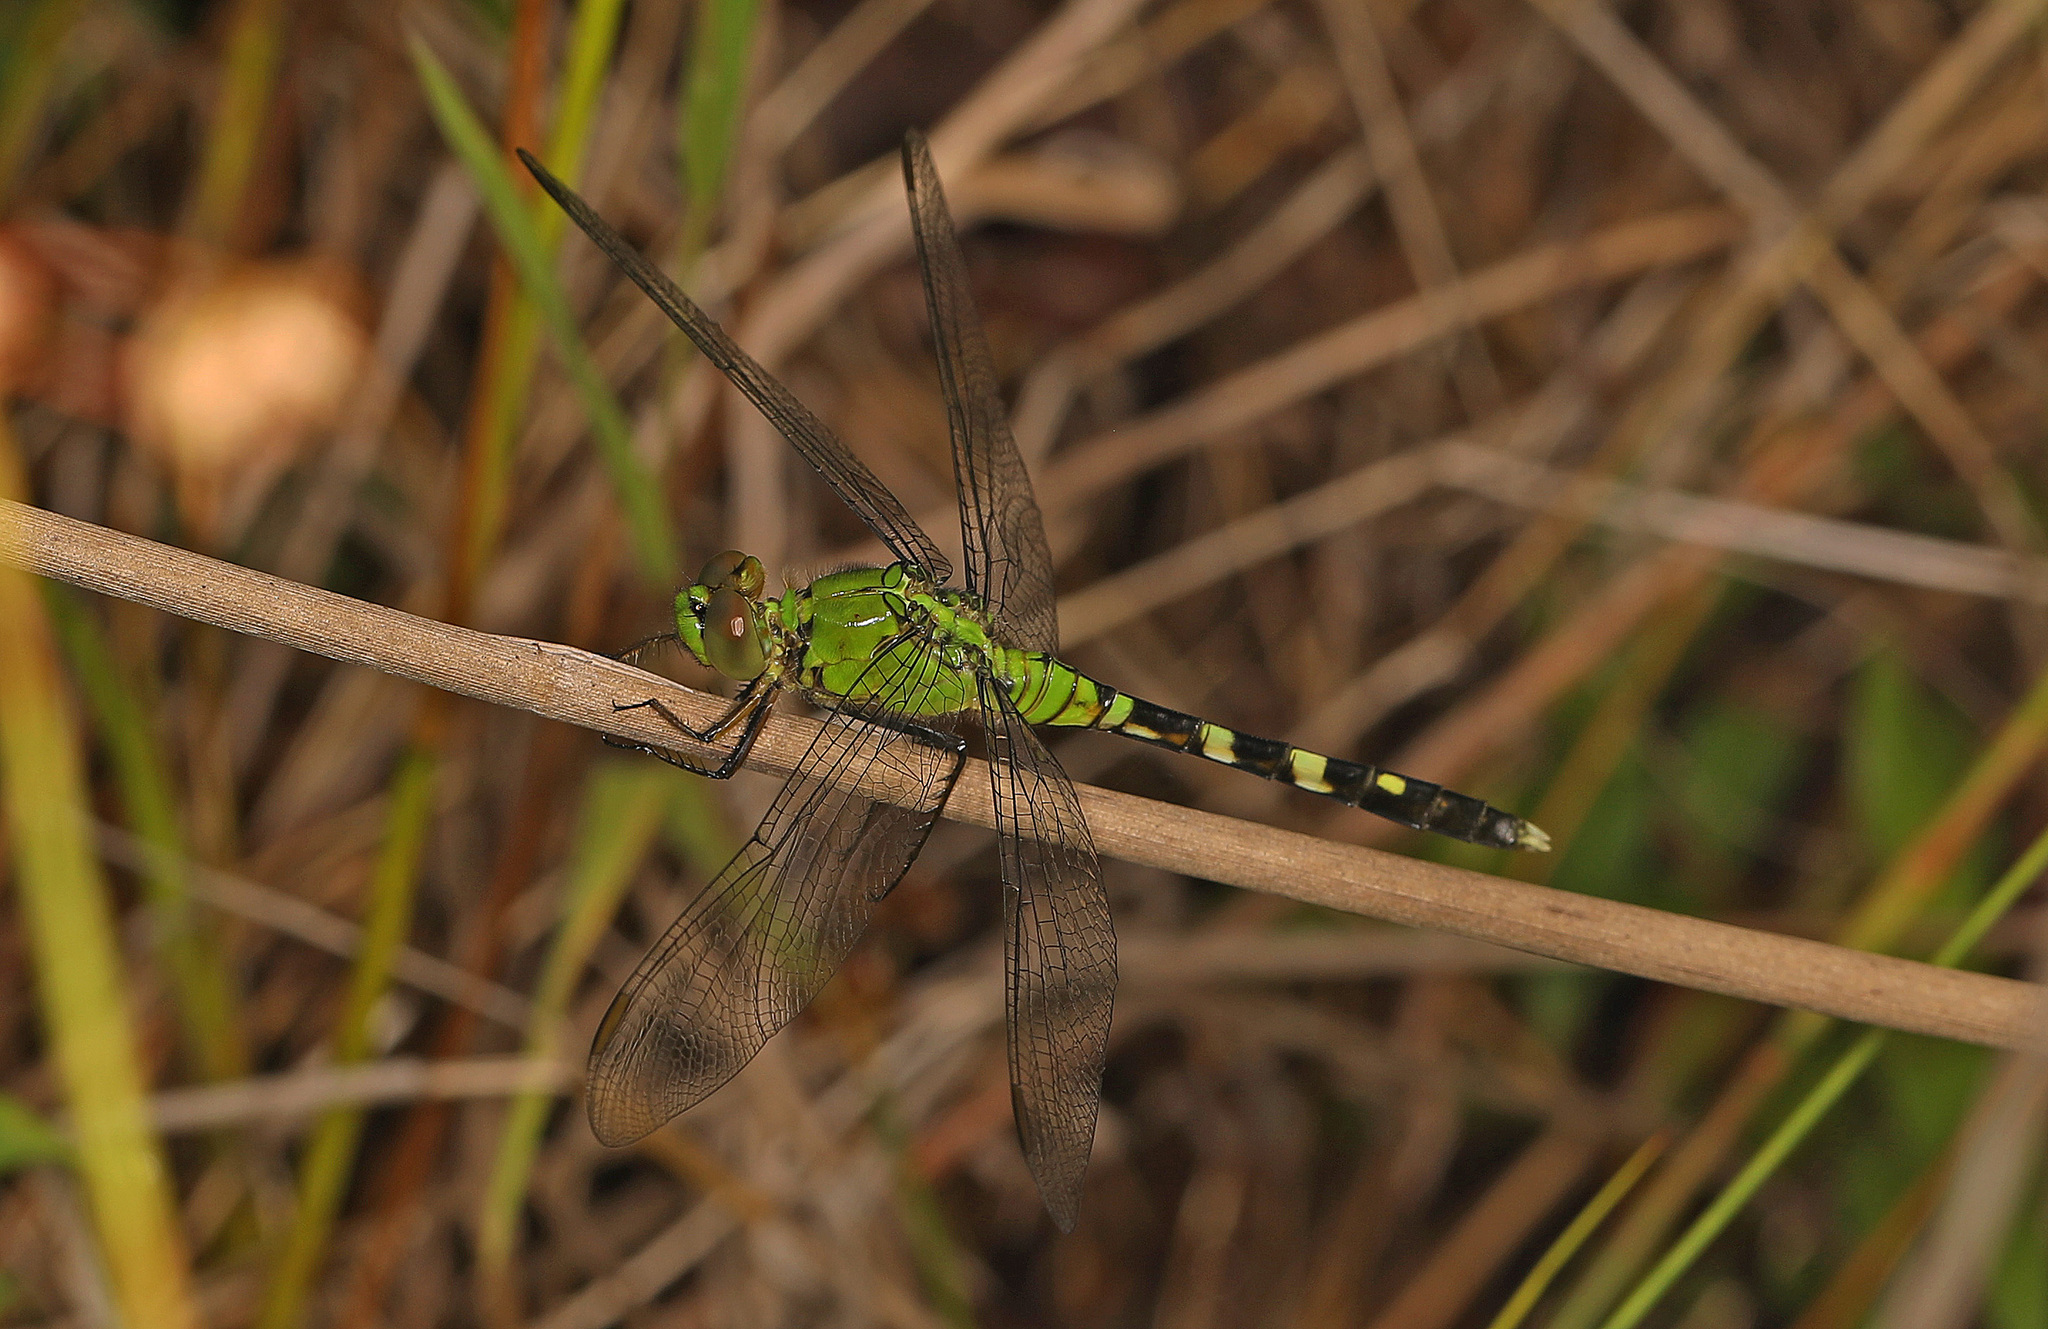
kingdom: Animalia
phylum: Arthropoda
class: Insecta
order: Odonata
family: Libellulidae
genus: Erythemis
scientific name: Erythemis simplicicollis
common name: Eastern pondhawk
